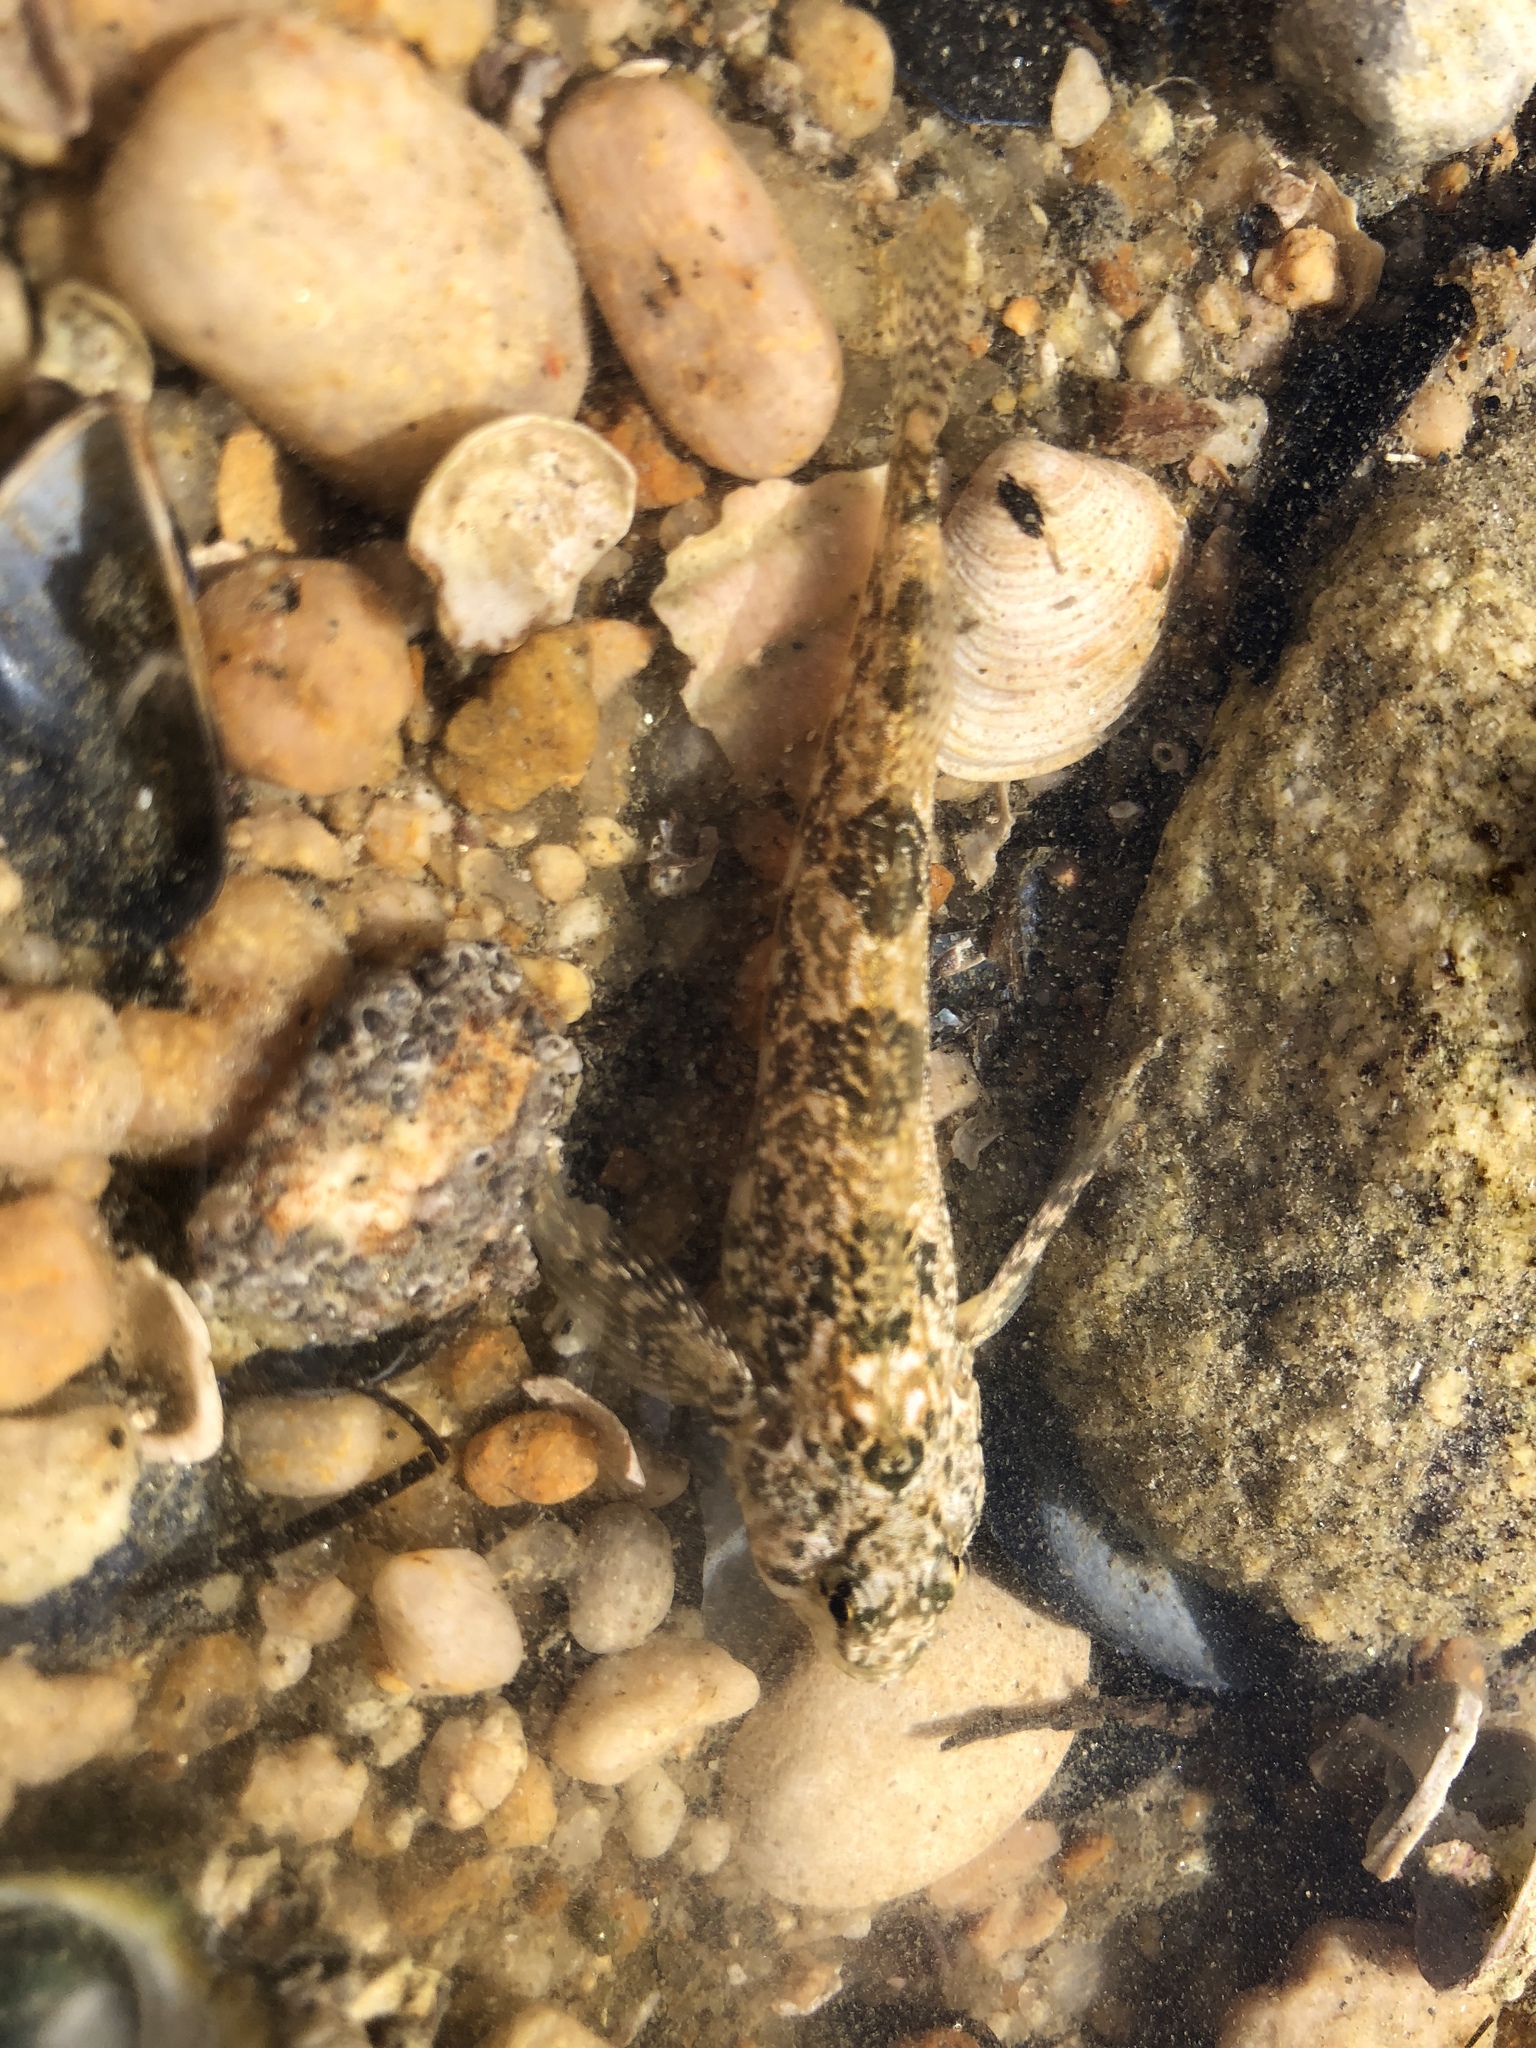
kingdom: Animalia
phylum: Chordata
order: Perciformes
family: Tripterygiidae
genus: Bellapiscis
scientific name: Bellapiscis medius
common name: Twister
